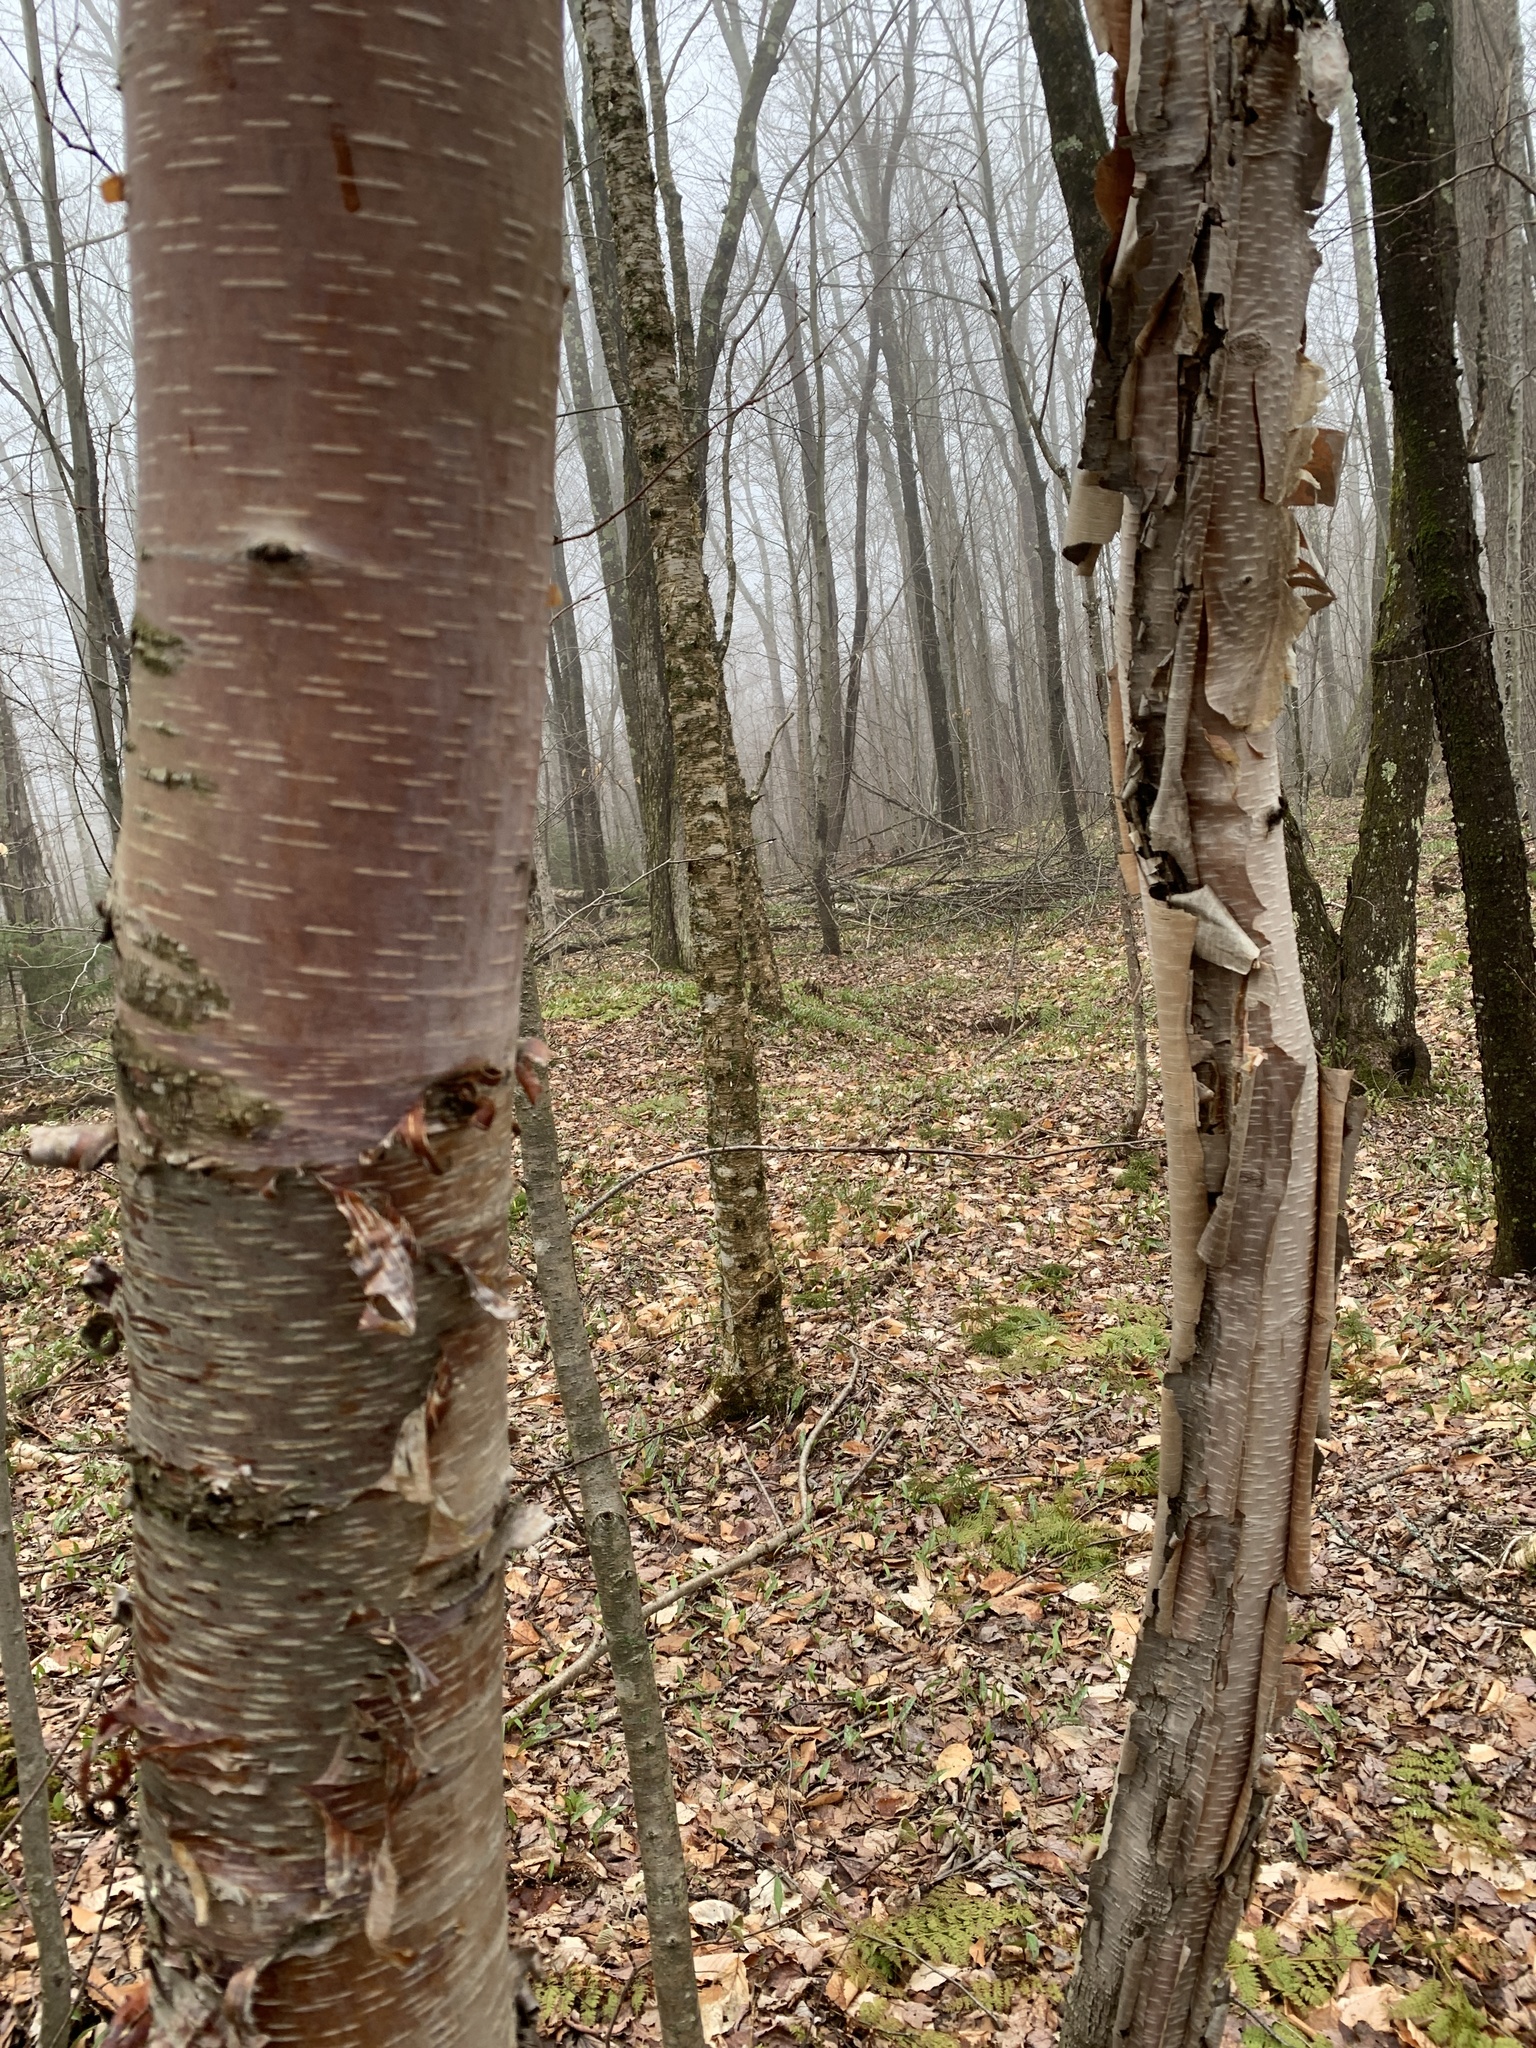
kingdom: Plantae
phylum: Tracheophyta
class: Magnoliopsida
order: Fagales
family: Betulaceae
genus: Betula
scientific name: Betula cordifolia
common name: Mountain white birch
